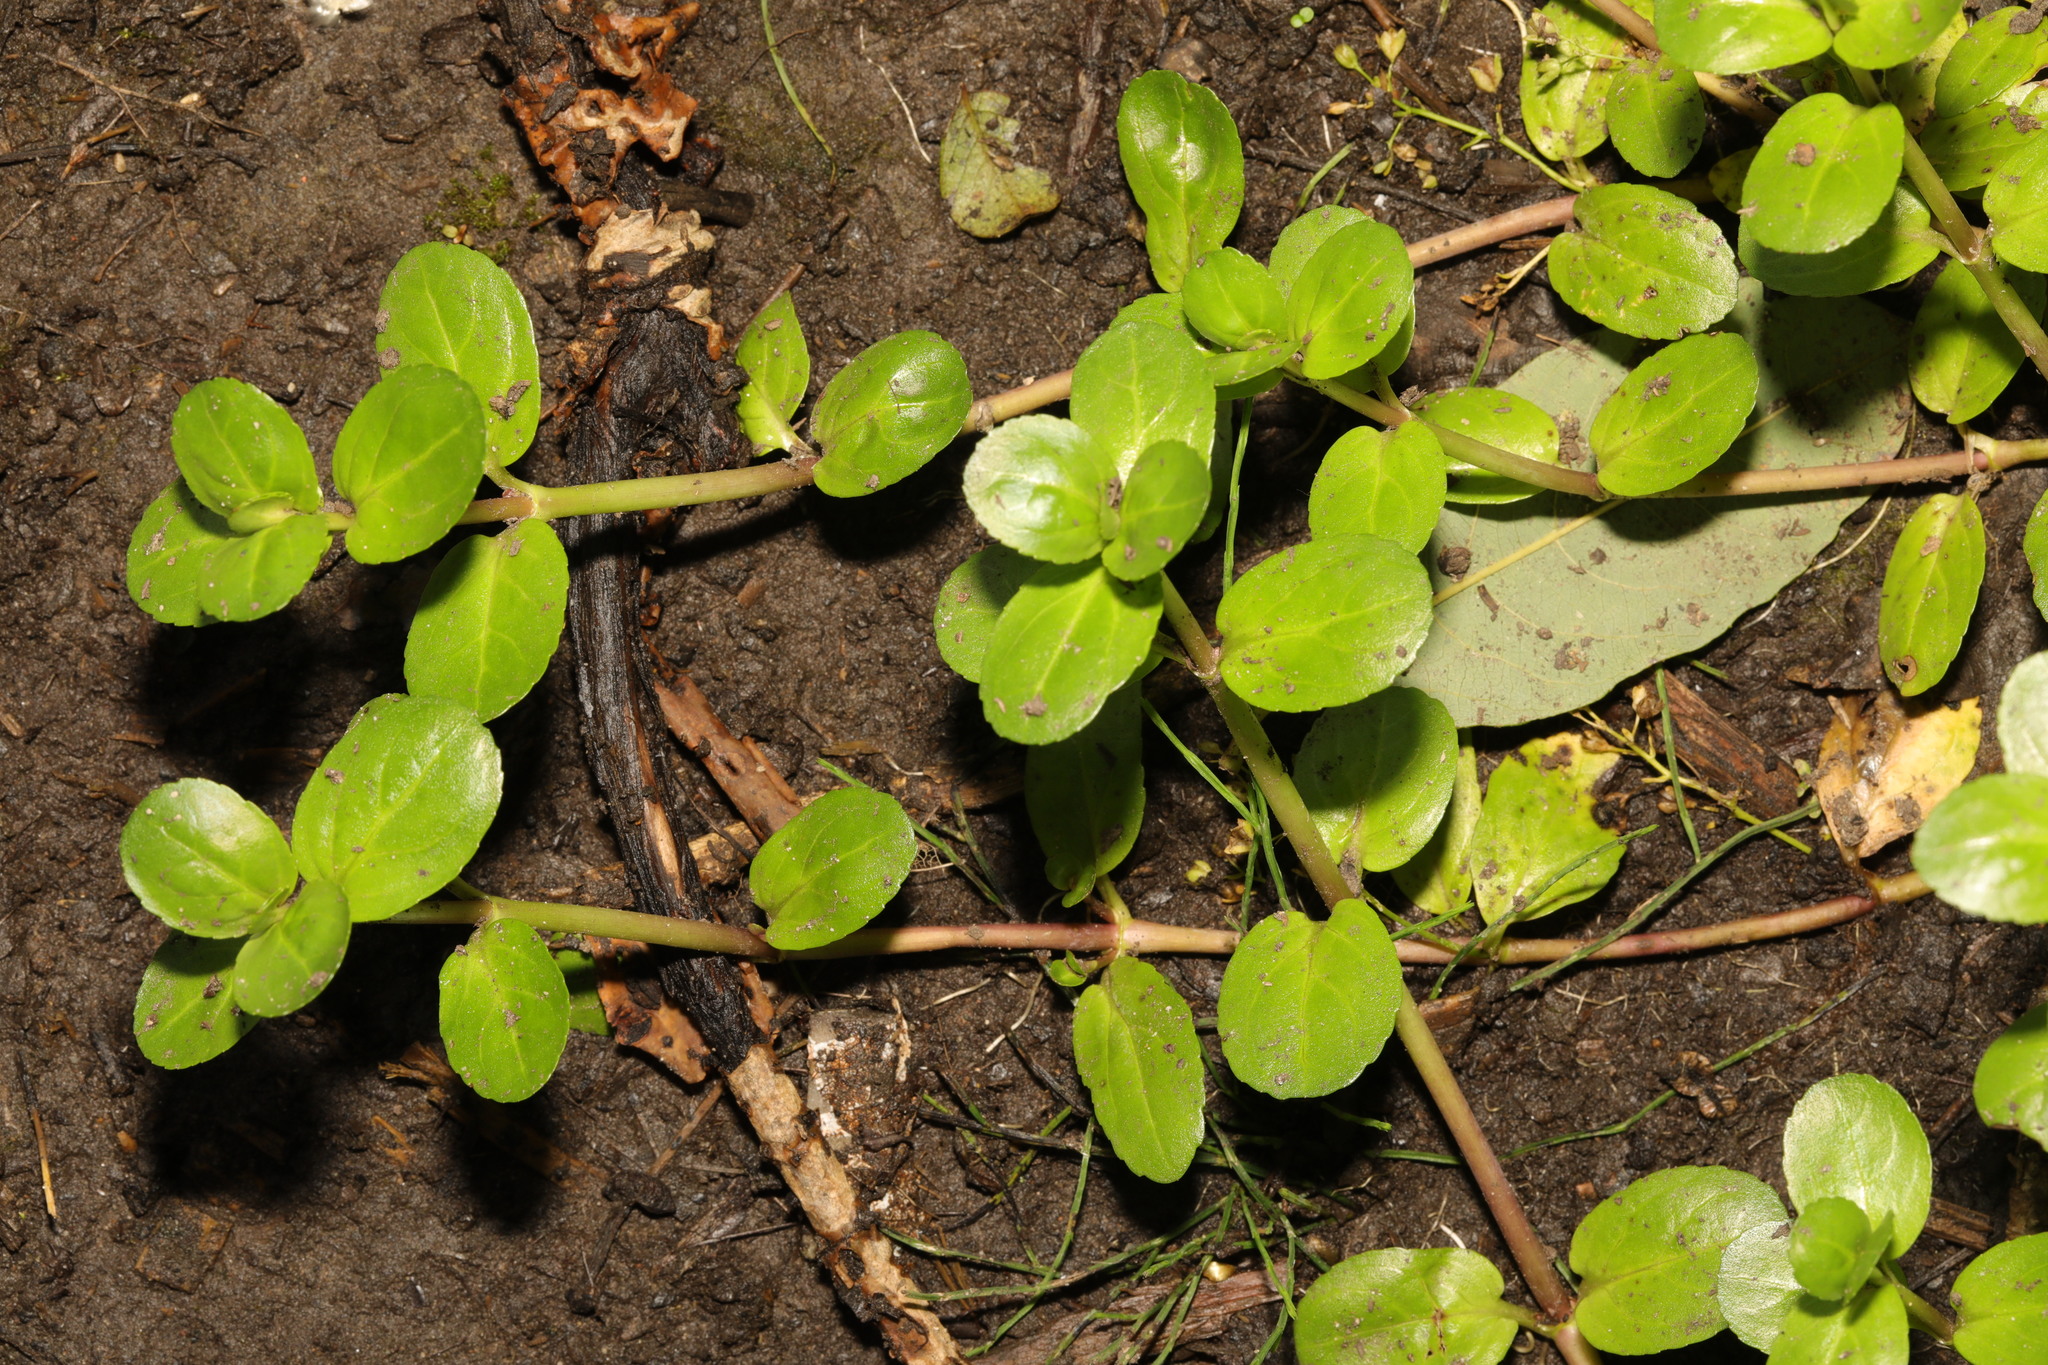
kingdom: Plantae
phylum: Tracheophyta
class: Magnoliopsida
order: Lamiales
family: Plantaginaceae
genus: Veronica
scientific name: Veronica beccabunga
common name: Brooklime
